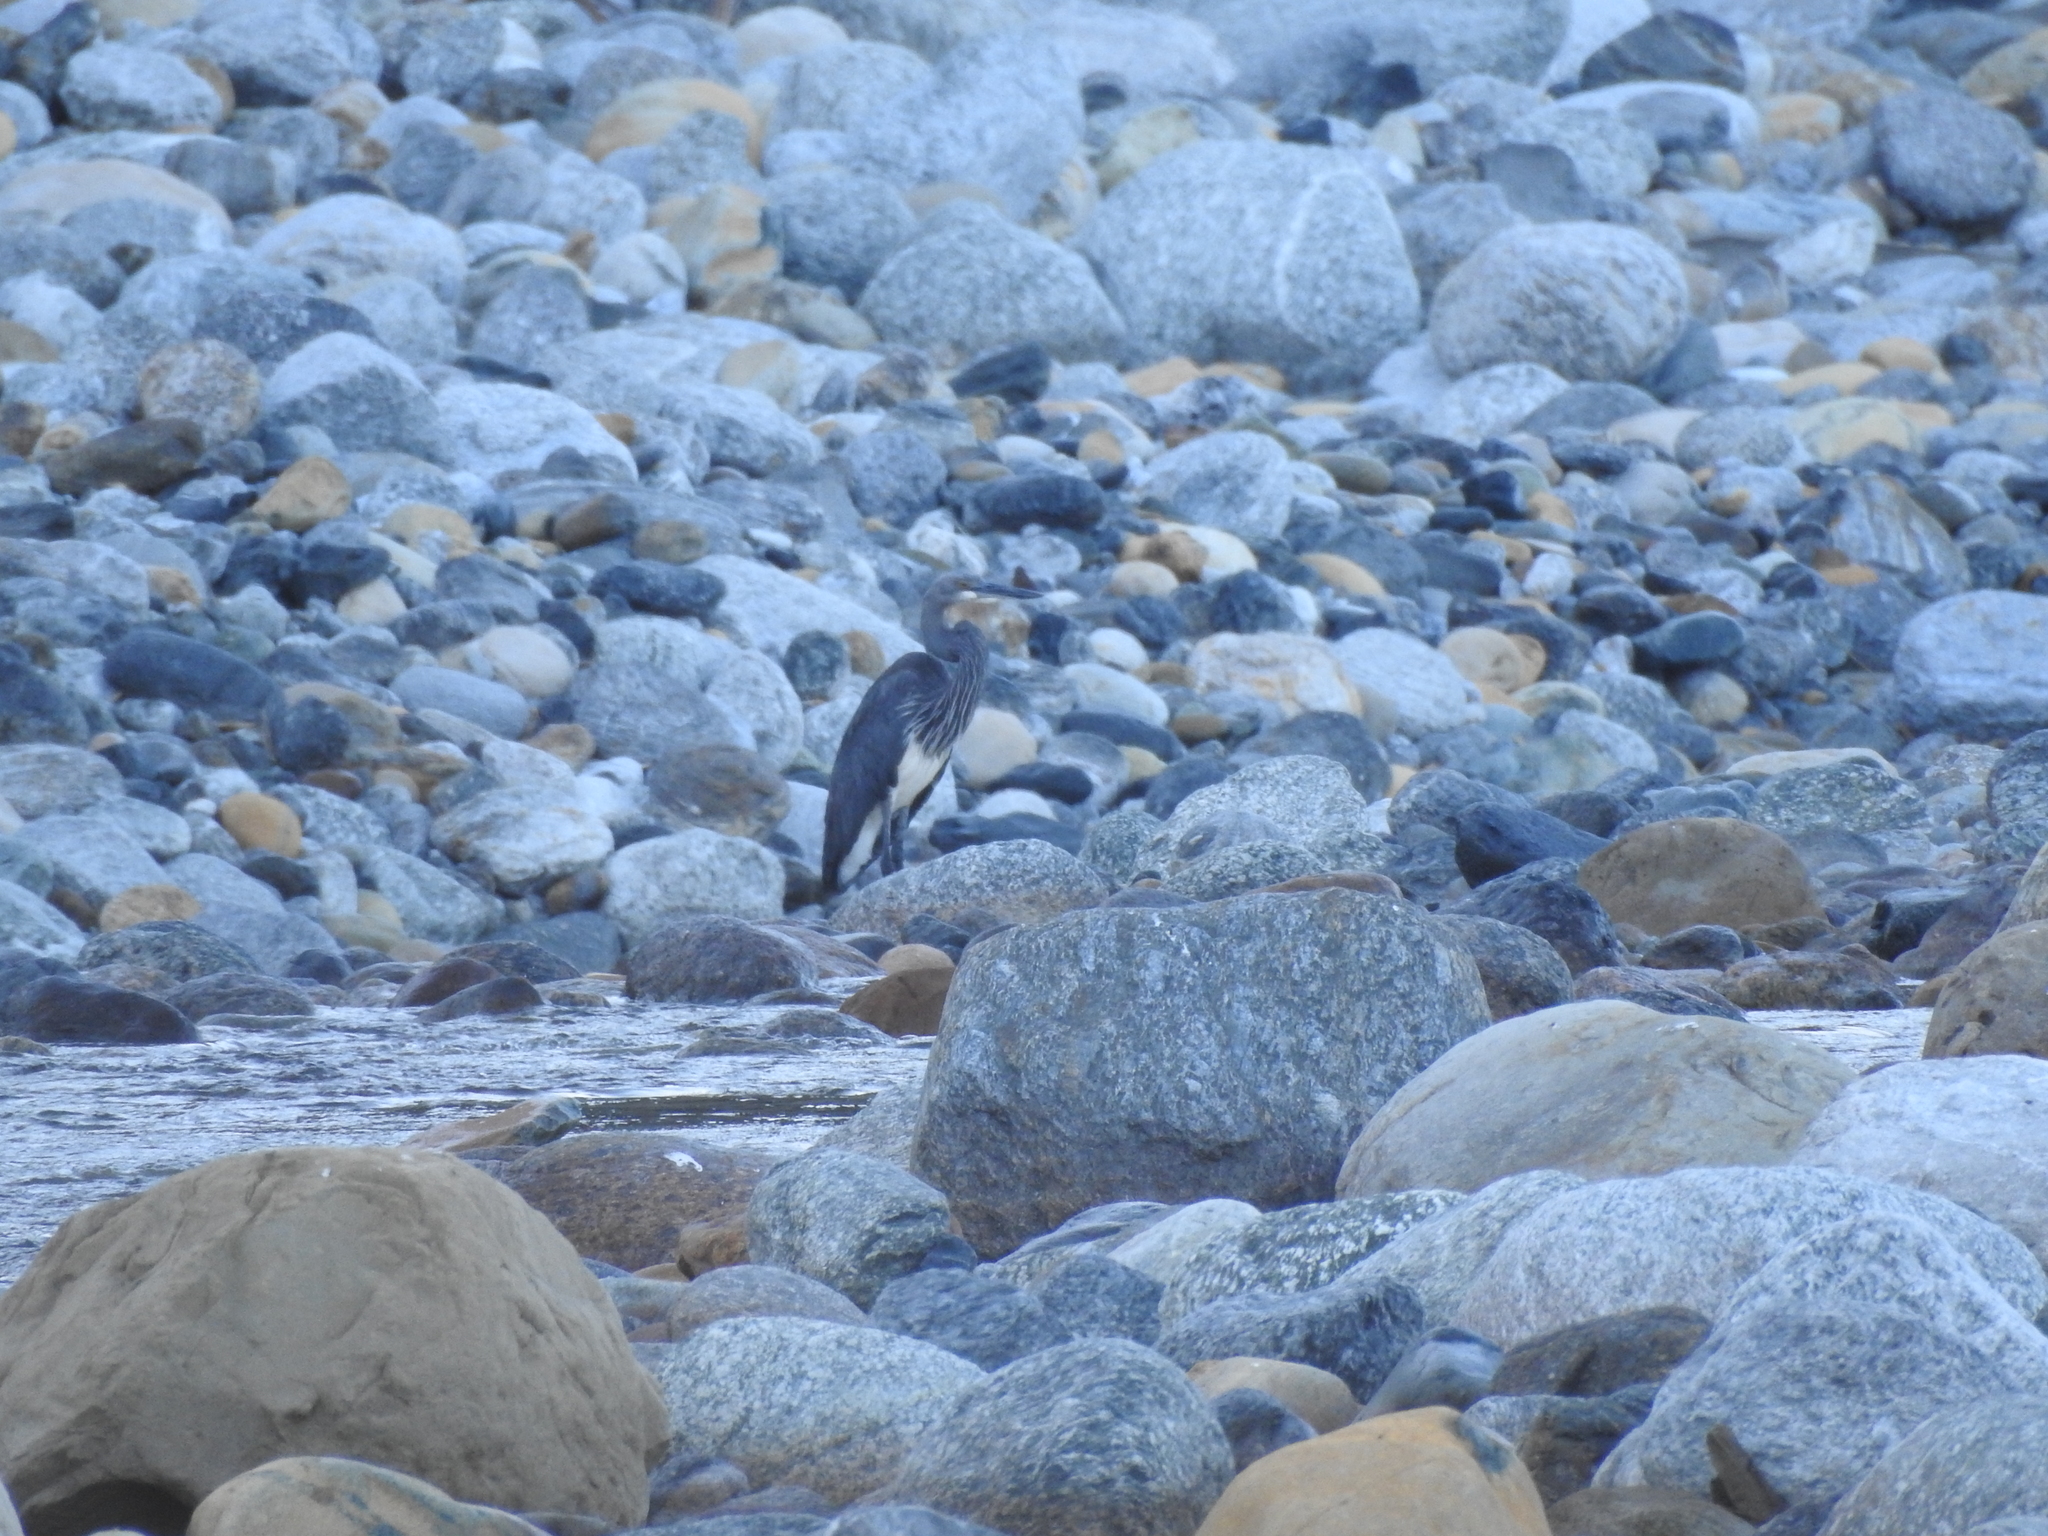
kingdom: Animalia
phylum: Chordata
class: Aves
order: Pelecaniformes
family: Ardeidae
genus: Ardea
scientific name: Ardea insignis
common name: White-bellied heron
